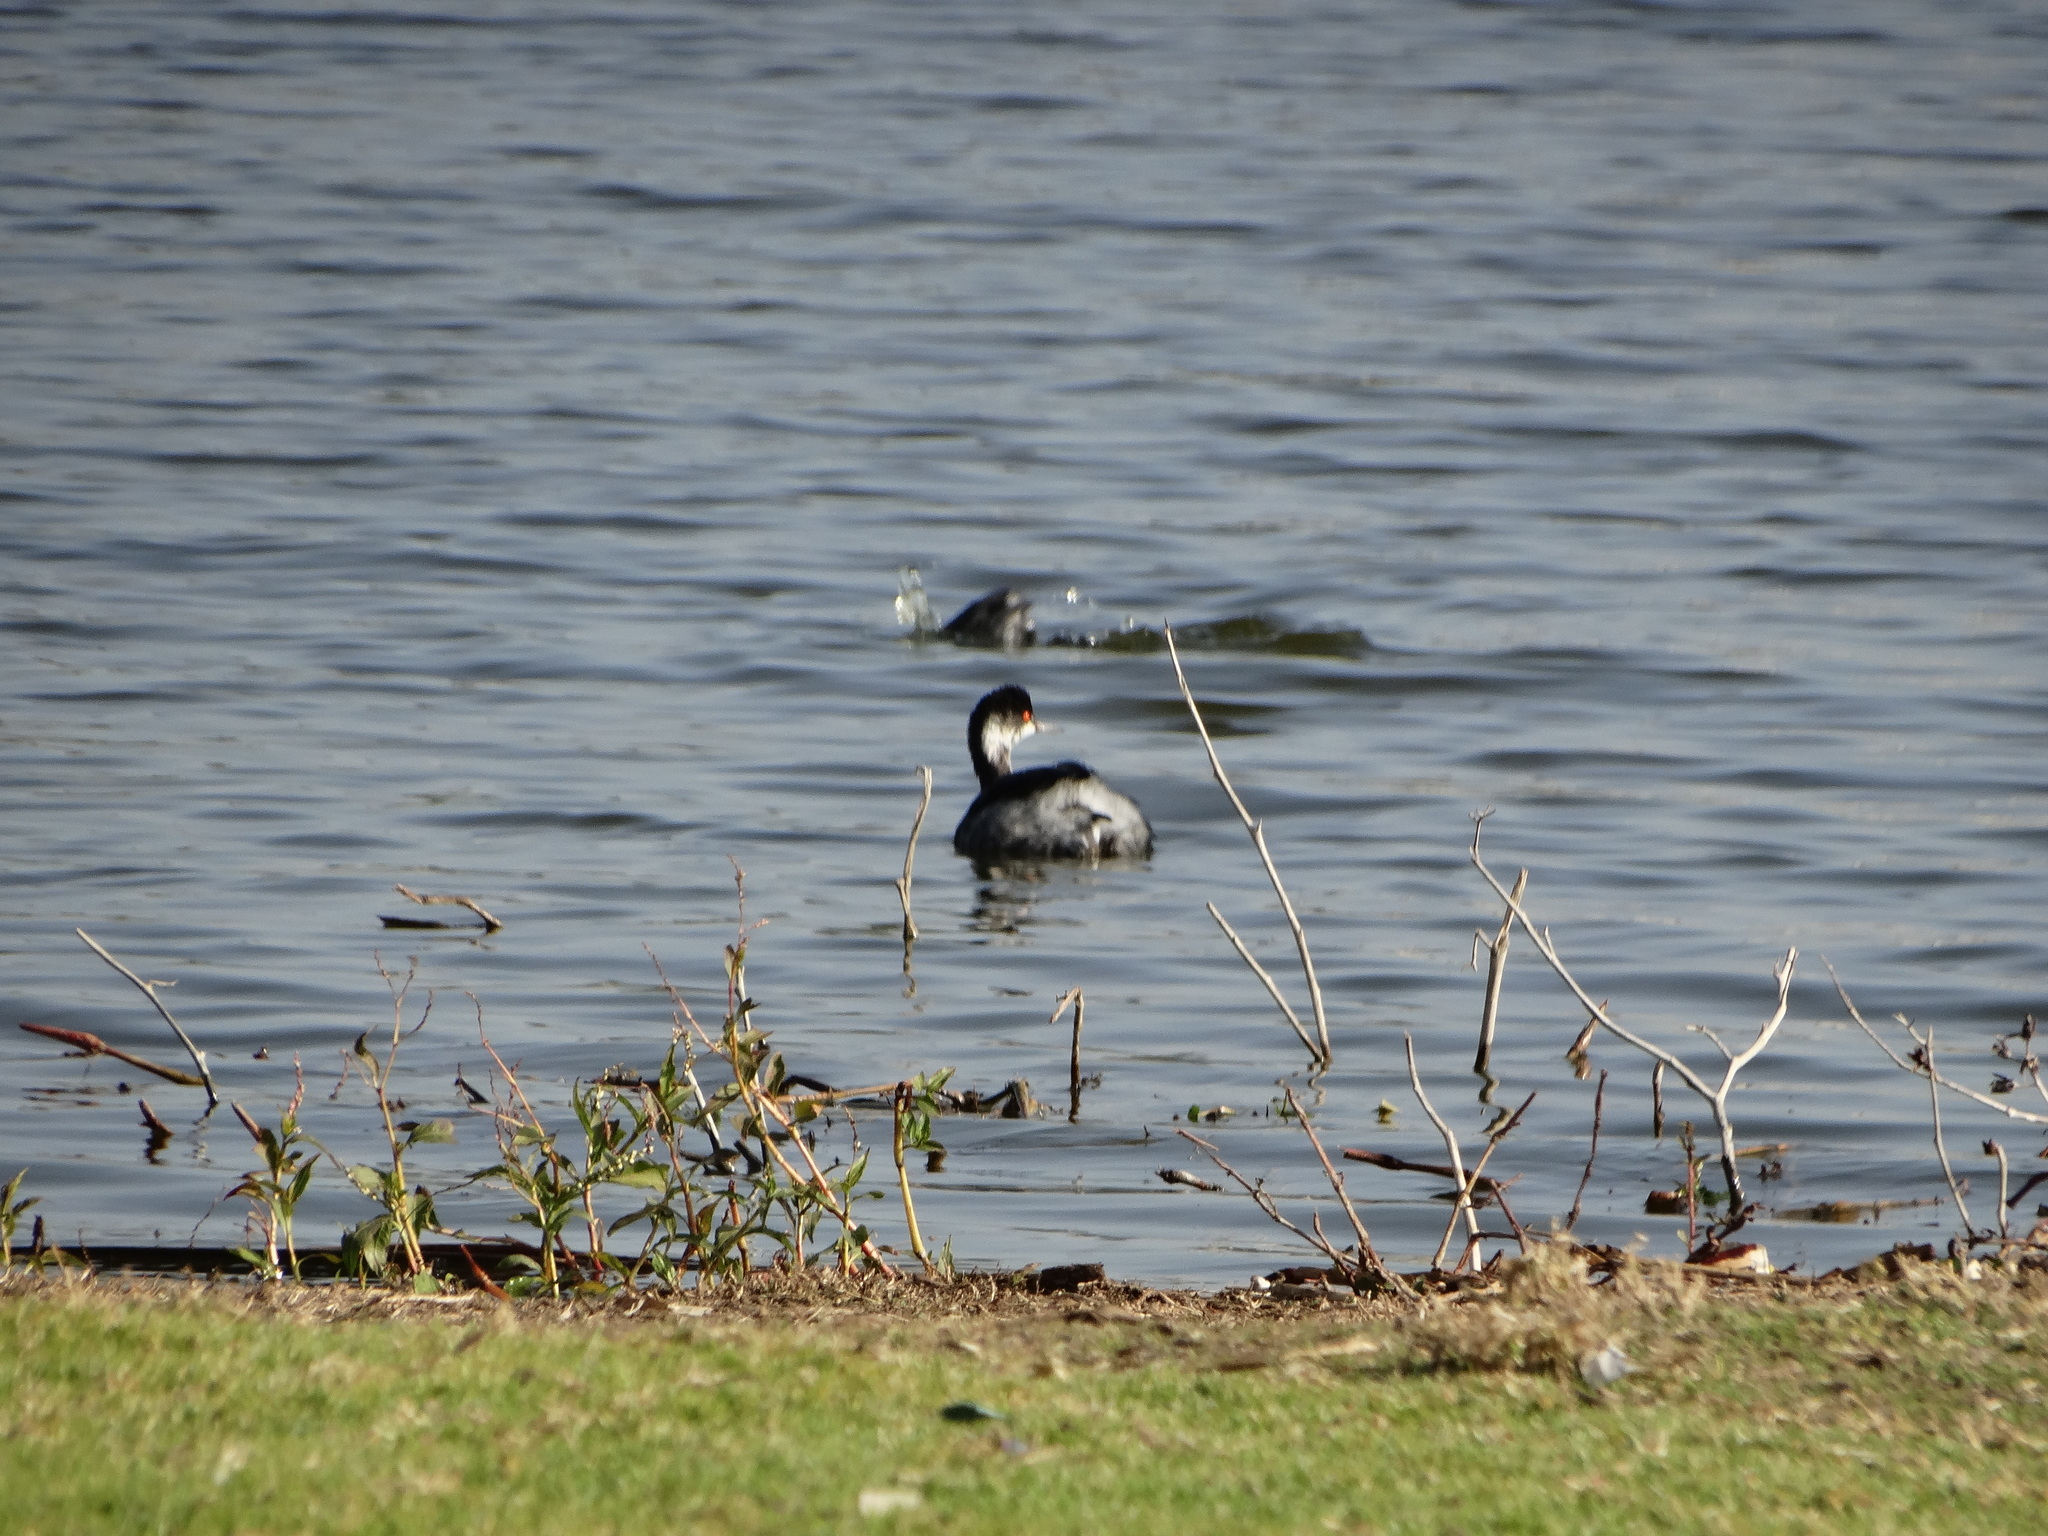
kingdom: Animalia
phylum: Chordata
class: Aves
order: Podicipediformes
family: Podicipedidae
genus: Podiceps
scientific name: Podiceps nigricollis
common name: Black-necked grebe
